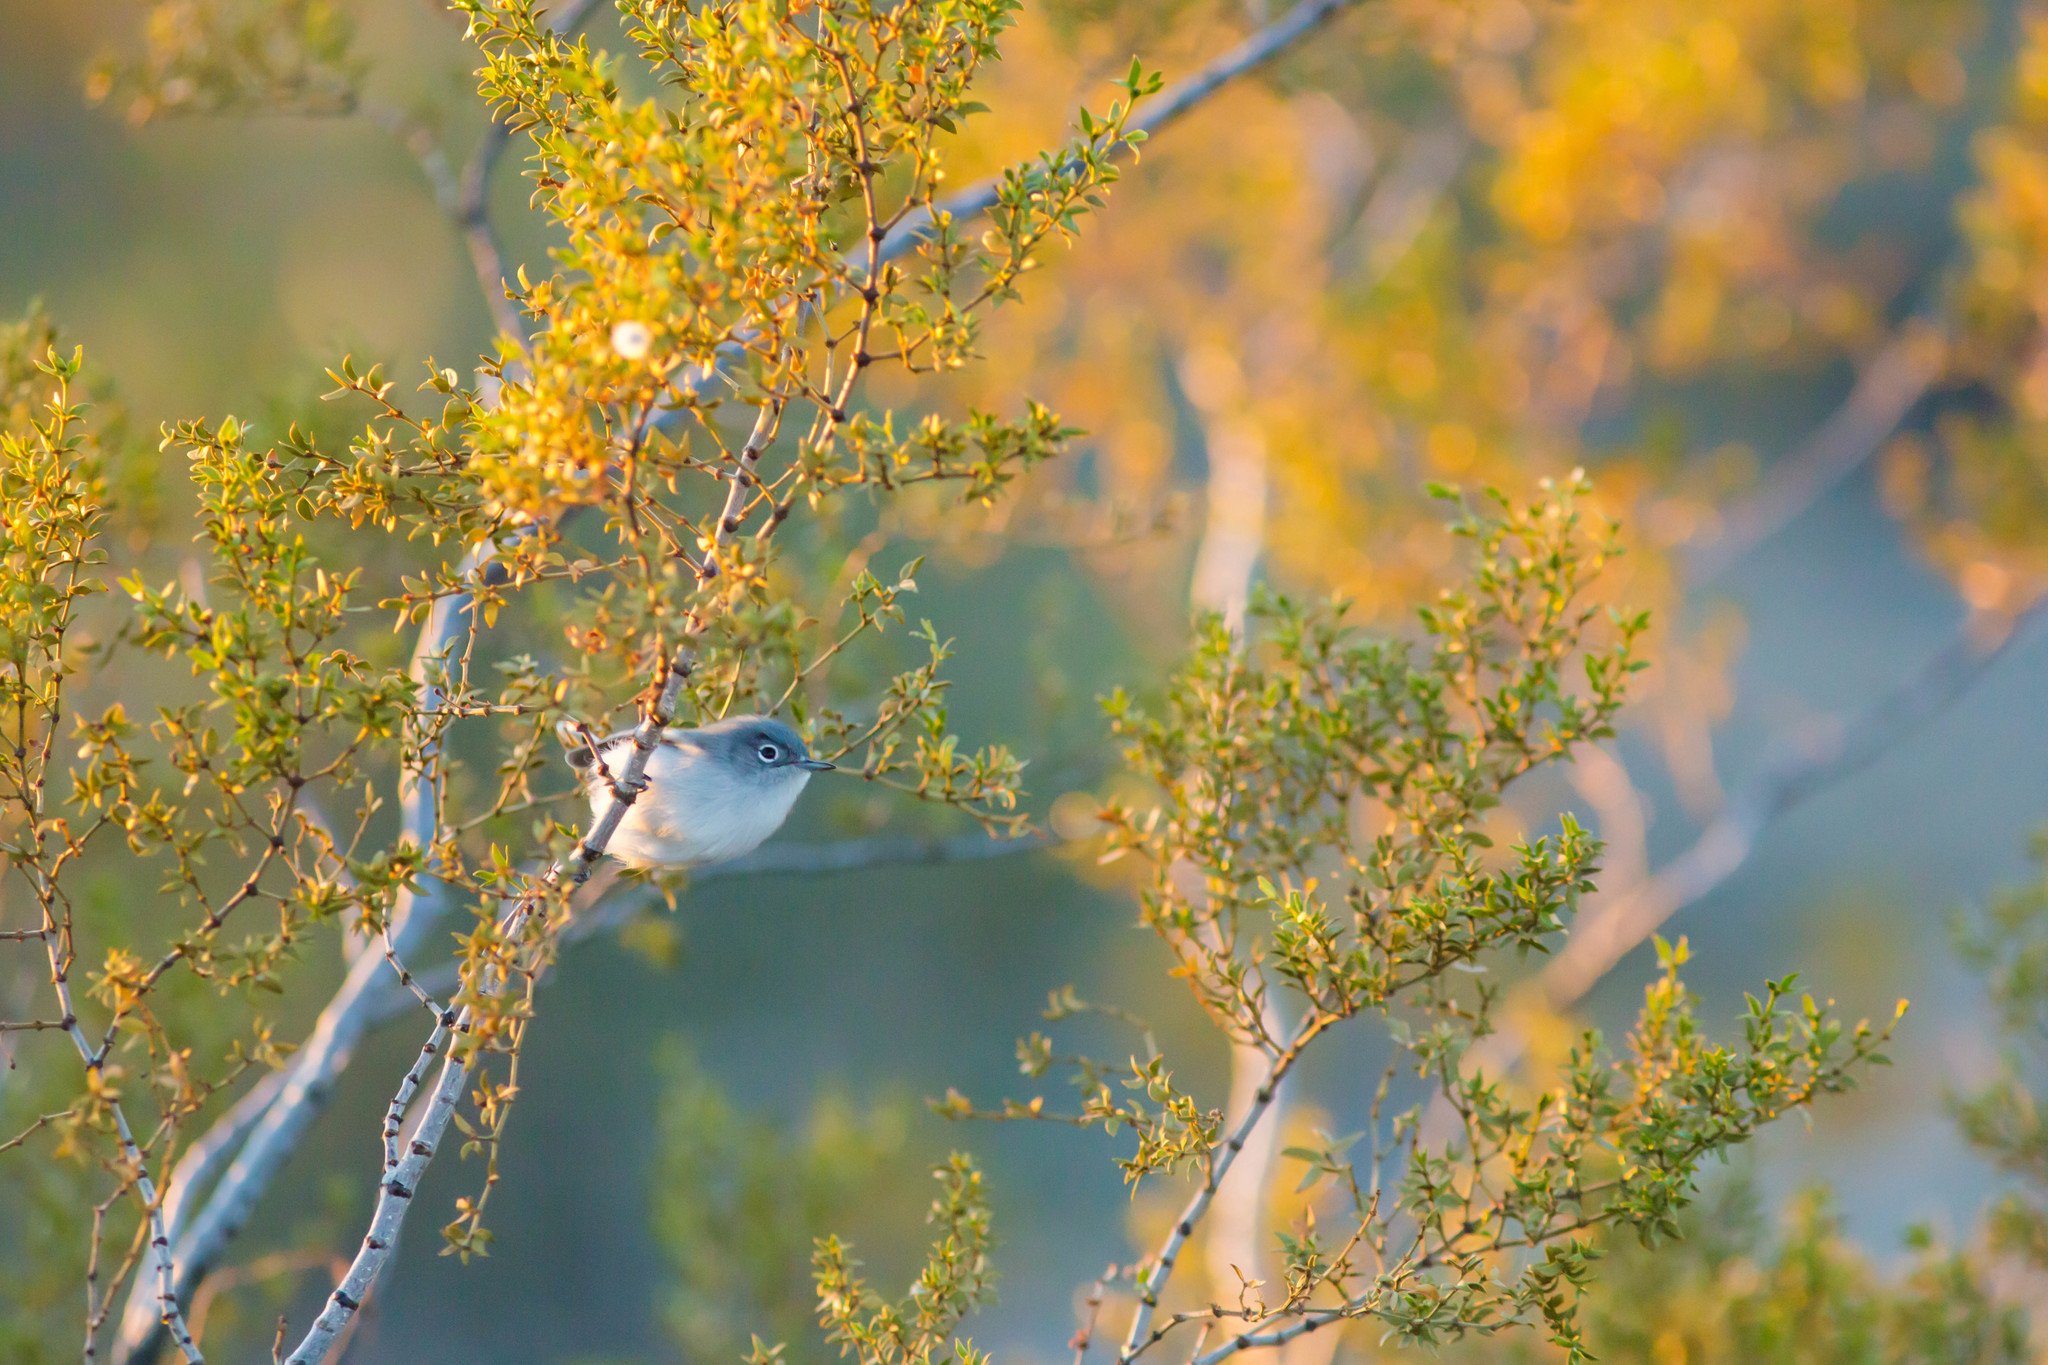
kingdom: Animalia
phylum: Chordata
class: Aves
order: Passeriformes
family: Polioptilidae
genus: Polioptila
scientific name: Polioptila melanura
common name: Black-tailed gnatcatcher
